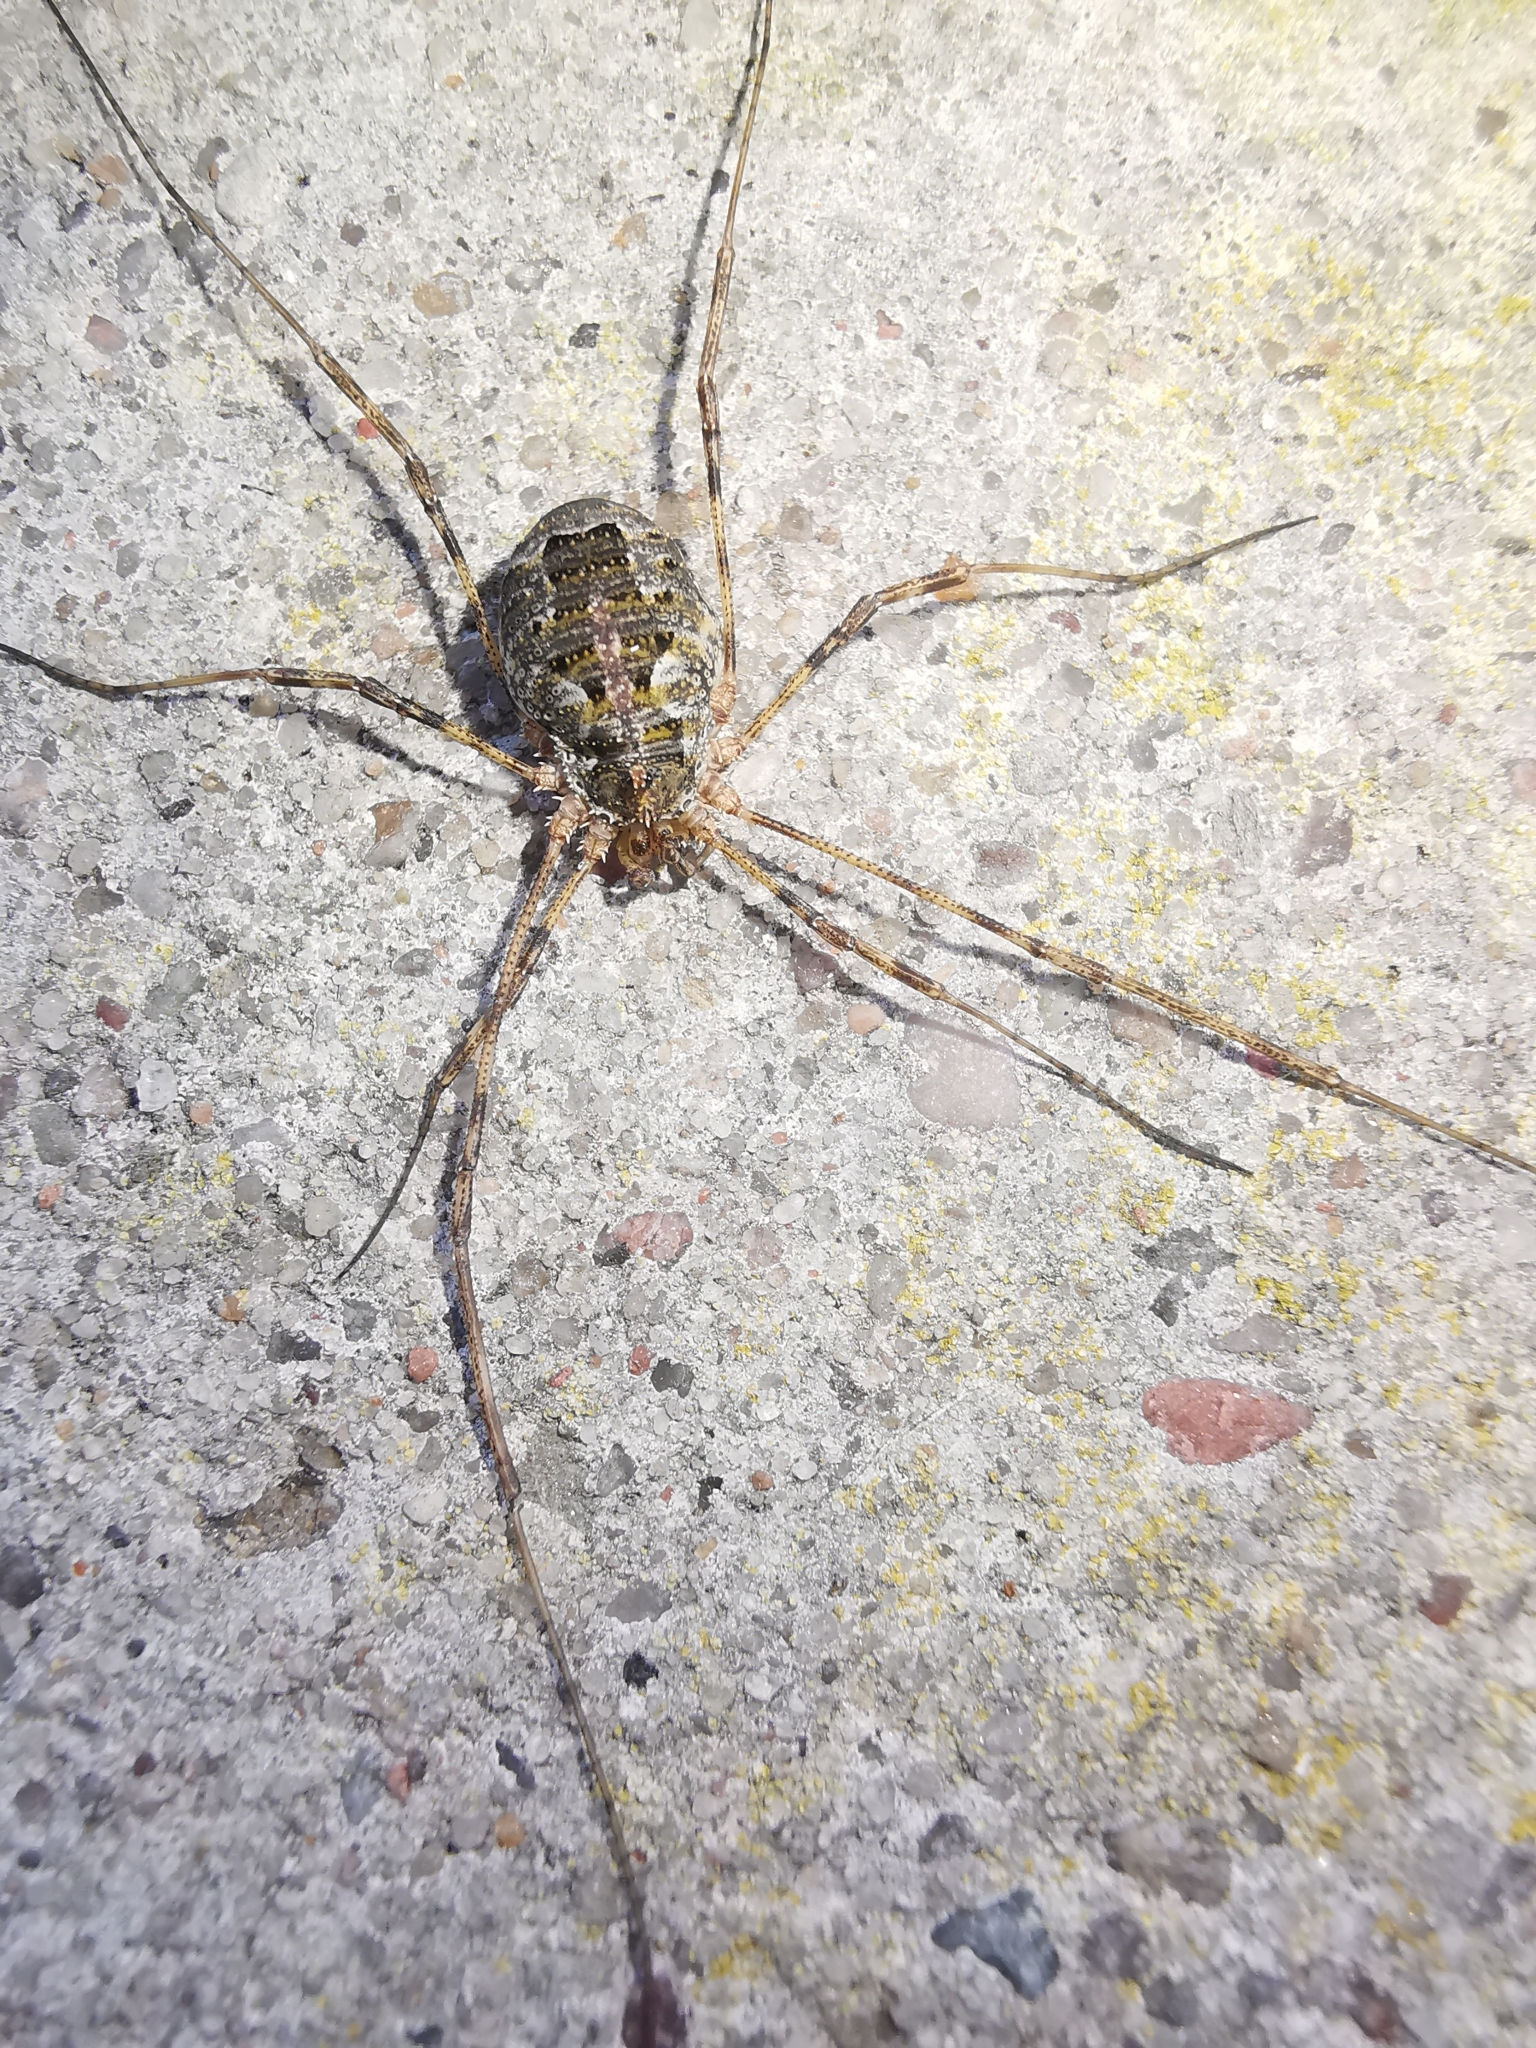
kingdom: Animalia
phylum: Arthropoda
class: Arachnida
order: Opiliones
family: Phalangiidae
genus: Lacinius
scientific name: Lacinius dentiger
